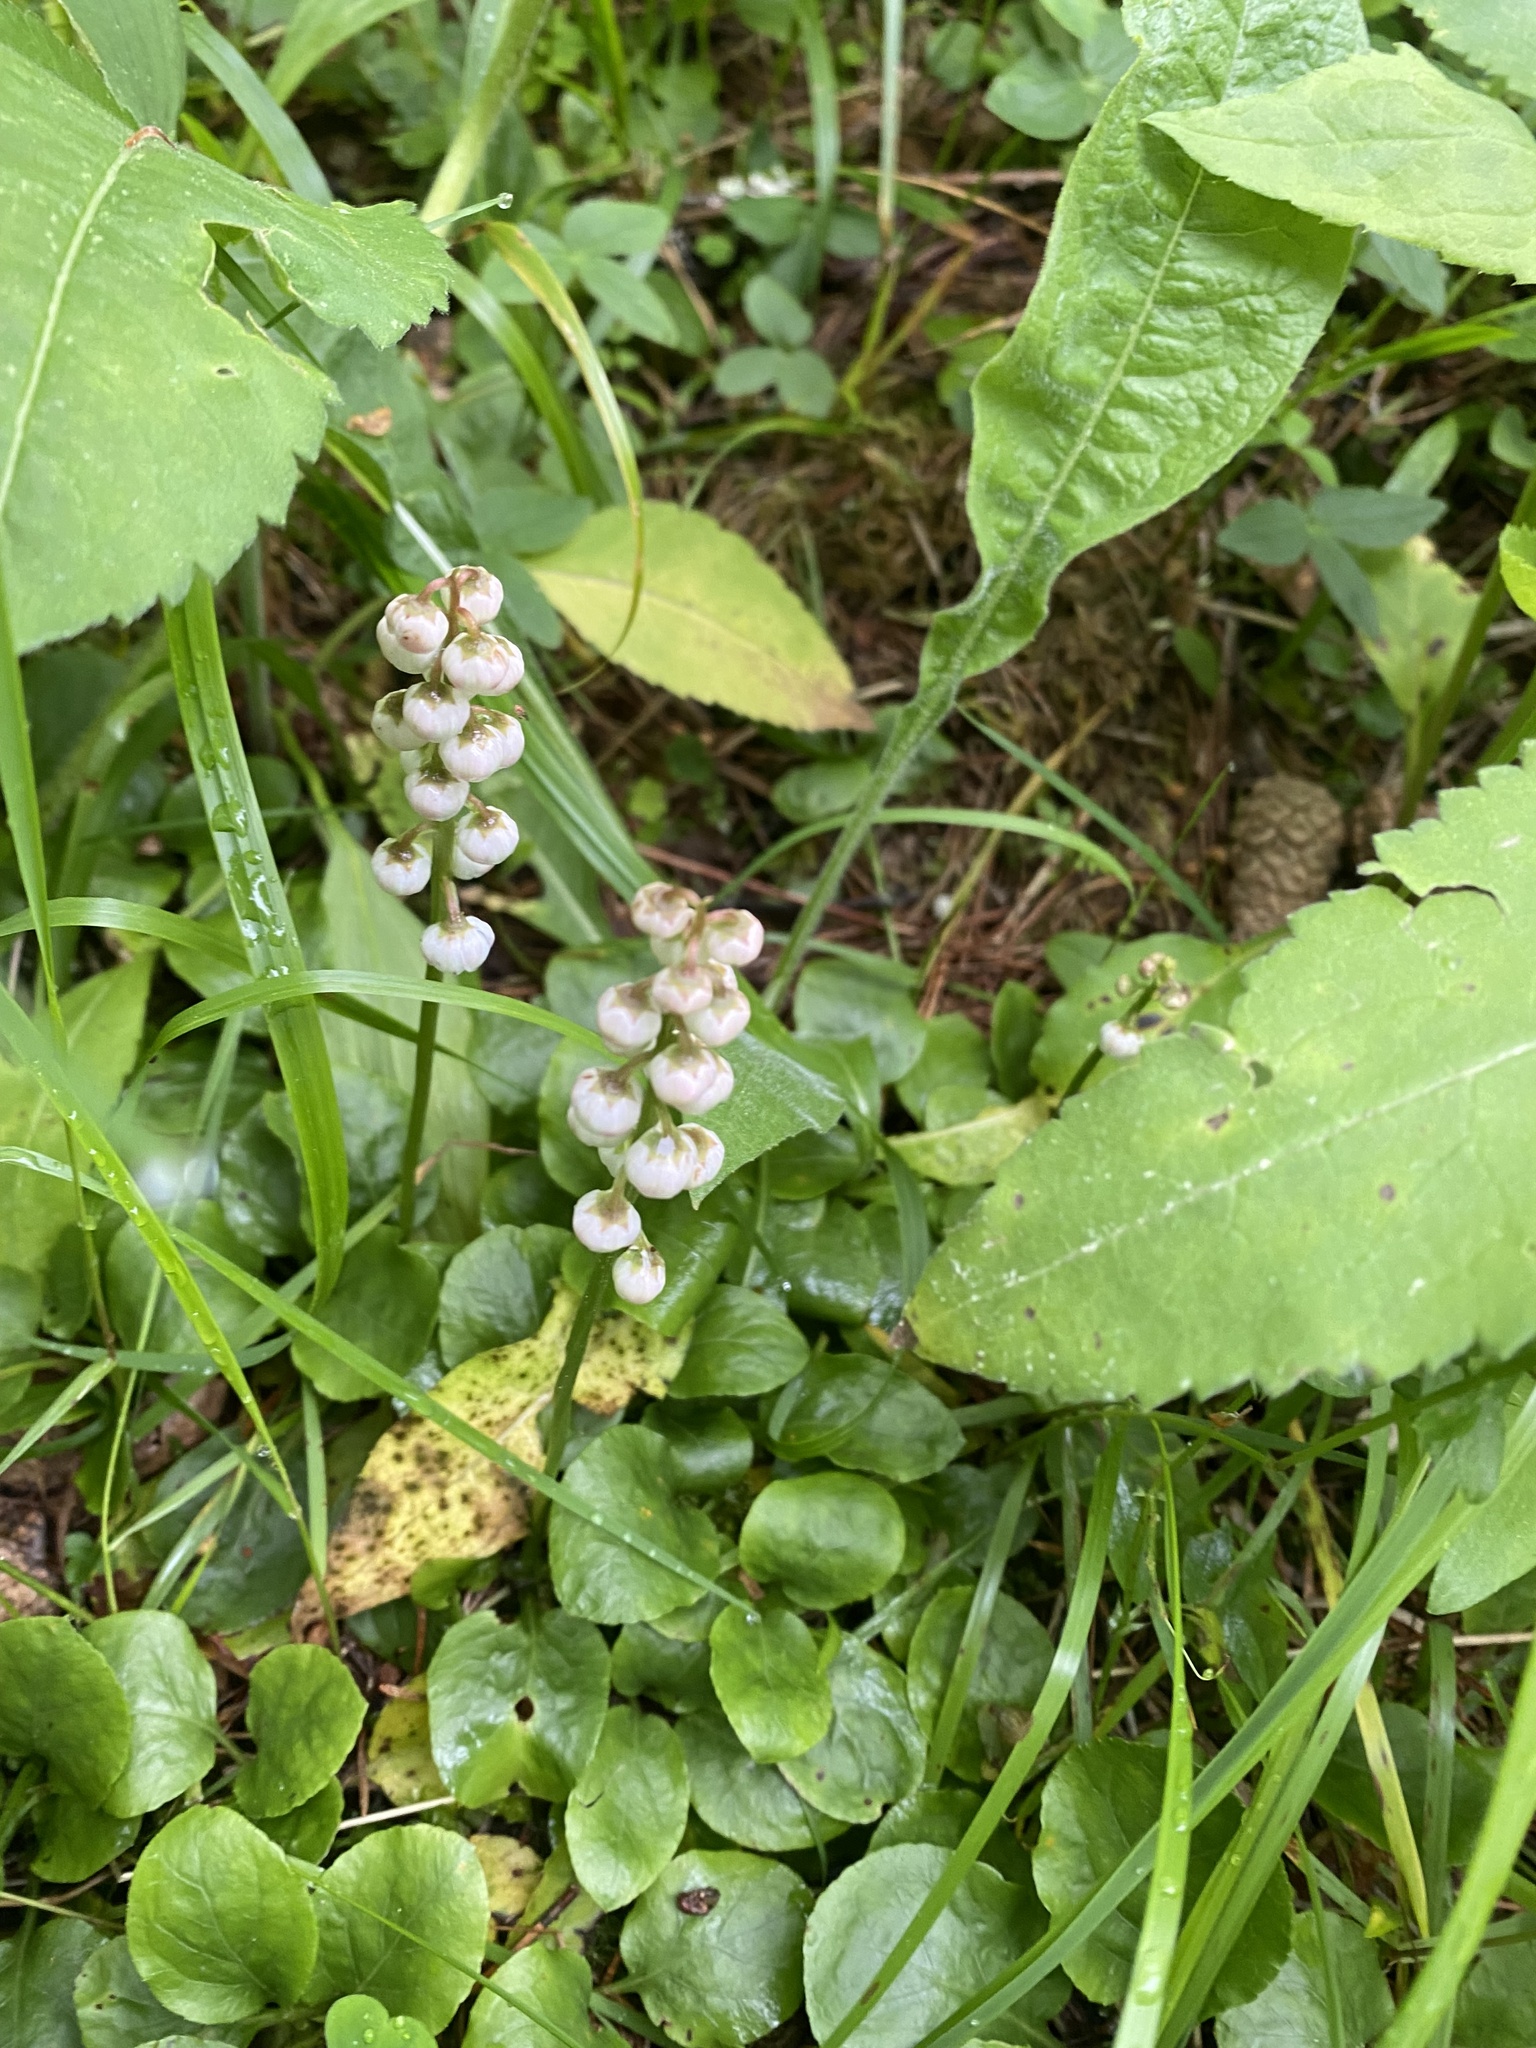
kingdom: Plantae
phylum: Tracheophyta
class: Magnoliopsida
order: Ericales
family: Ericaceae
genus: Pyrola
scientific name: Pyrola minor
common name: Common wintergreen
